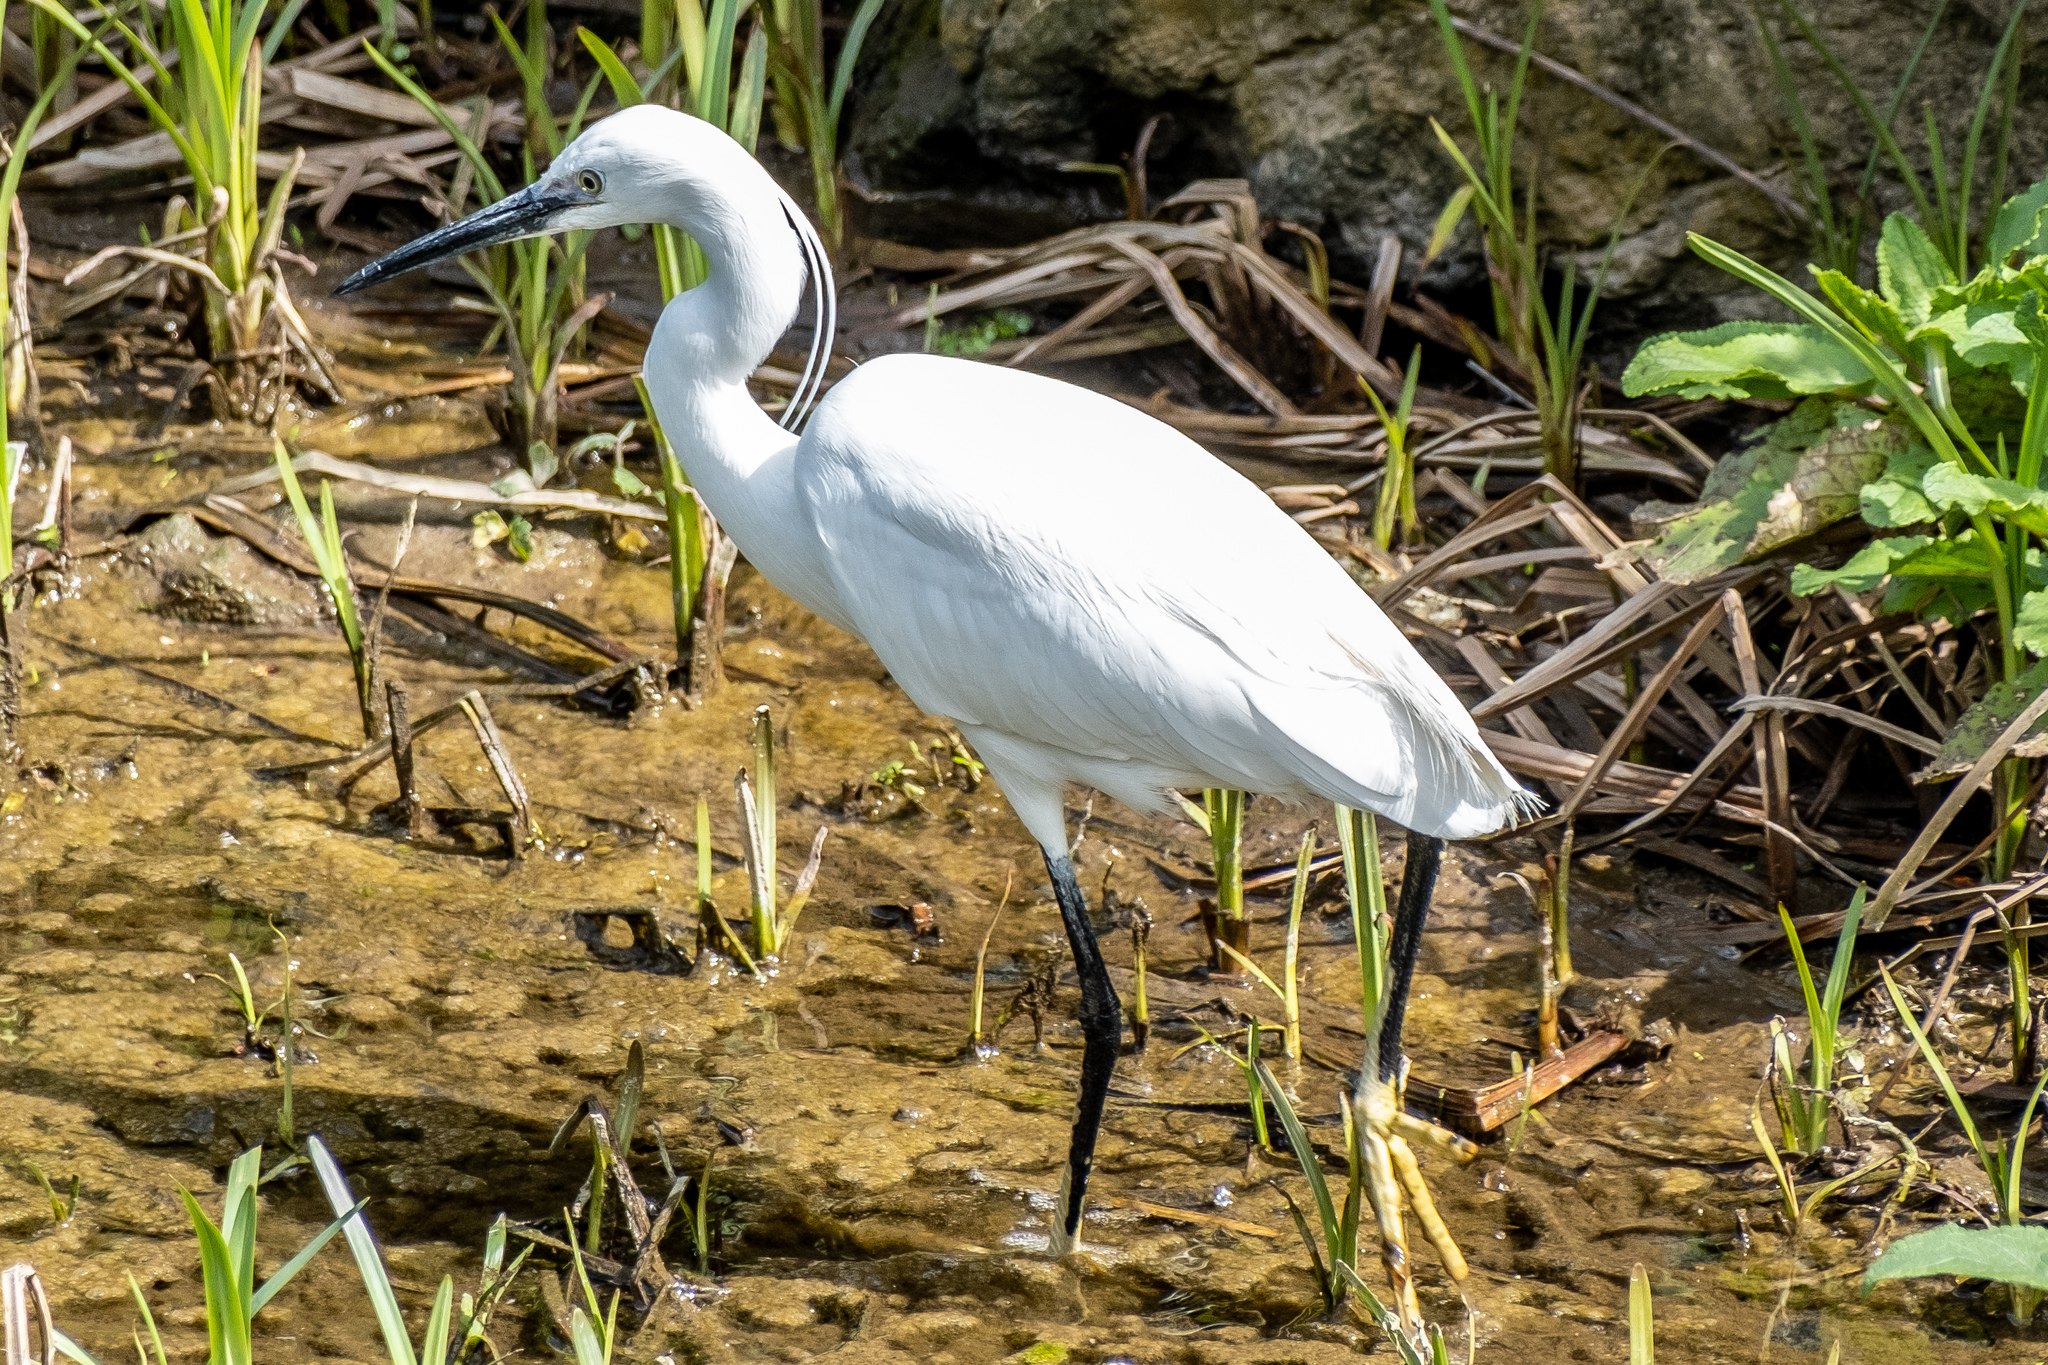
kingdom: Animalia
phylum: Chordata
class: Aves
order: Pelecaniformes
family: Ardeidae
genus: Egretta
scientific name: Egretta garzetta
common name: Little egret
